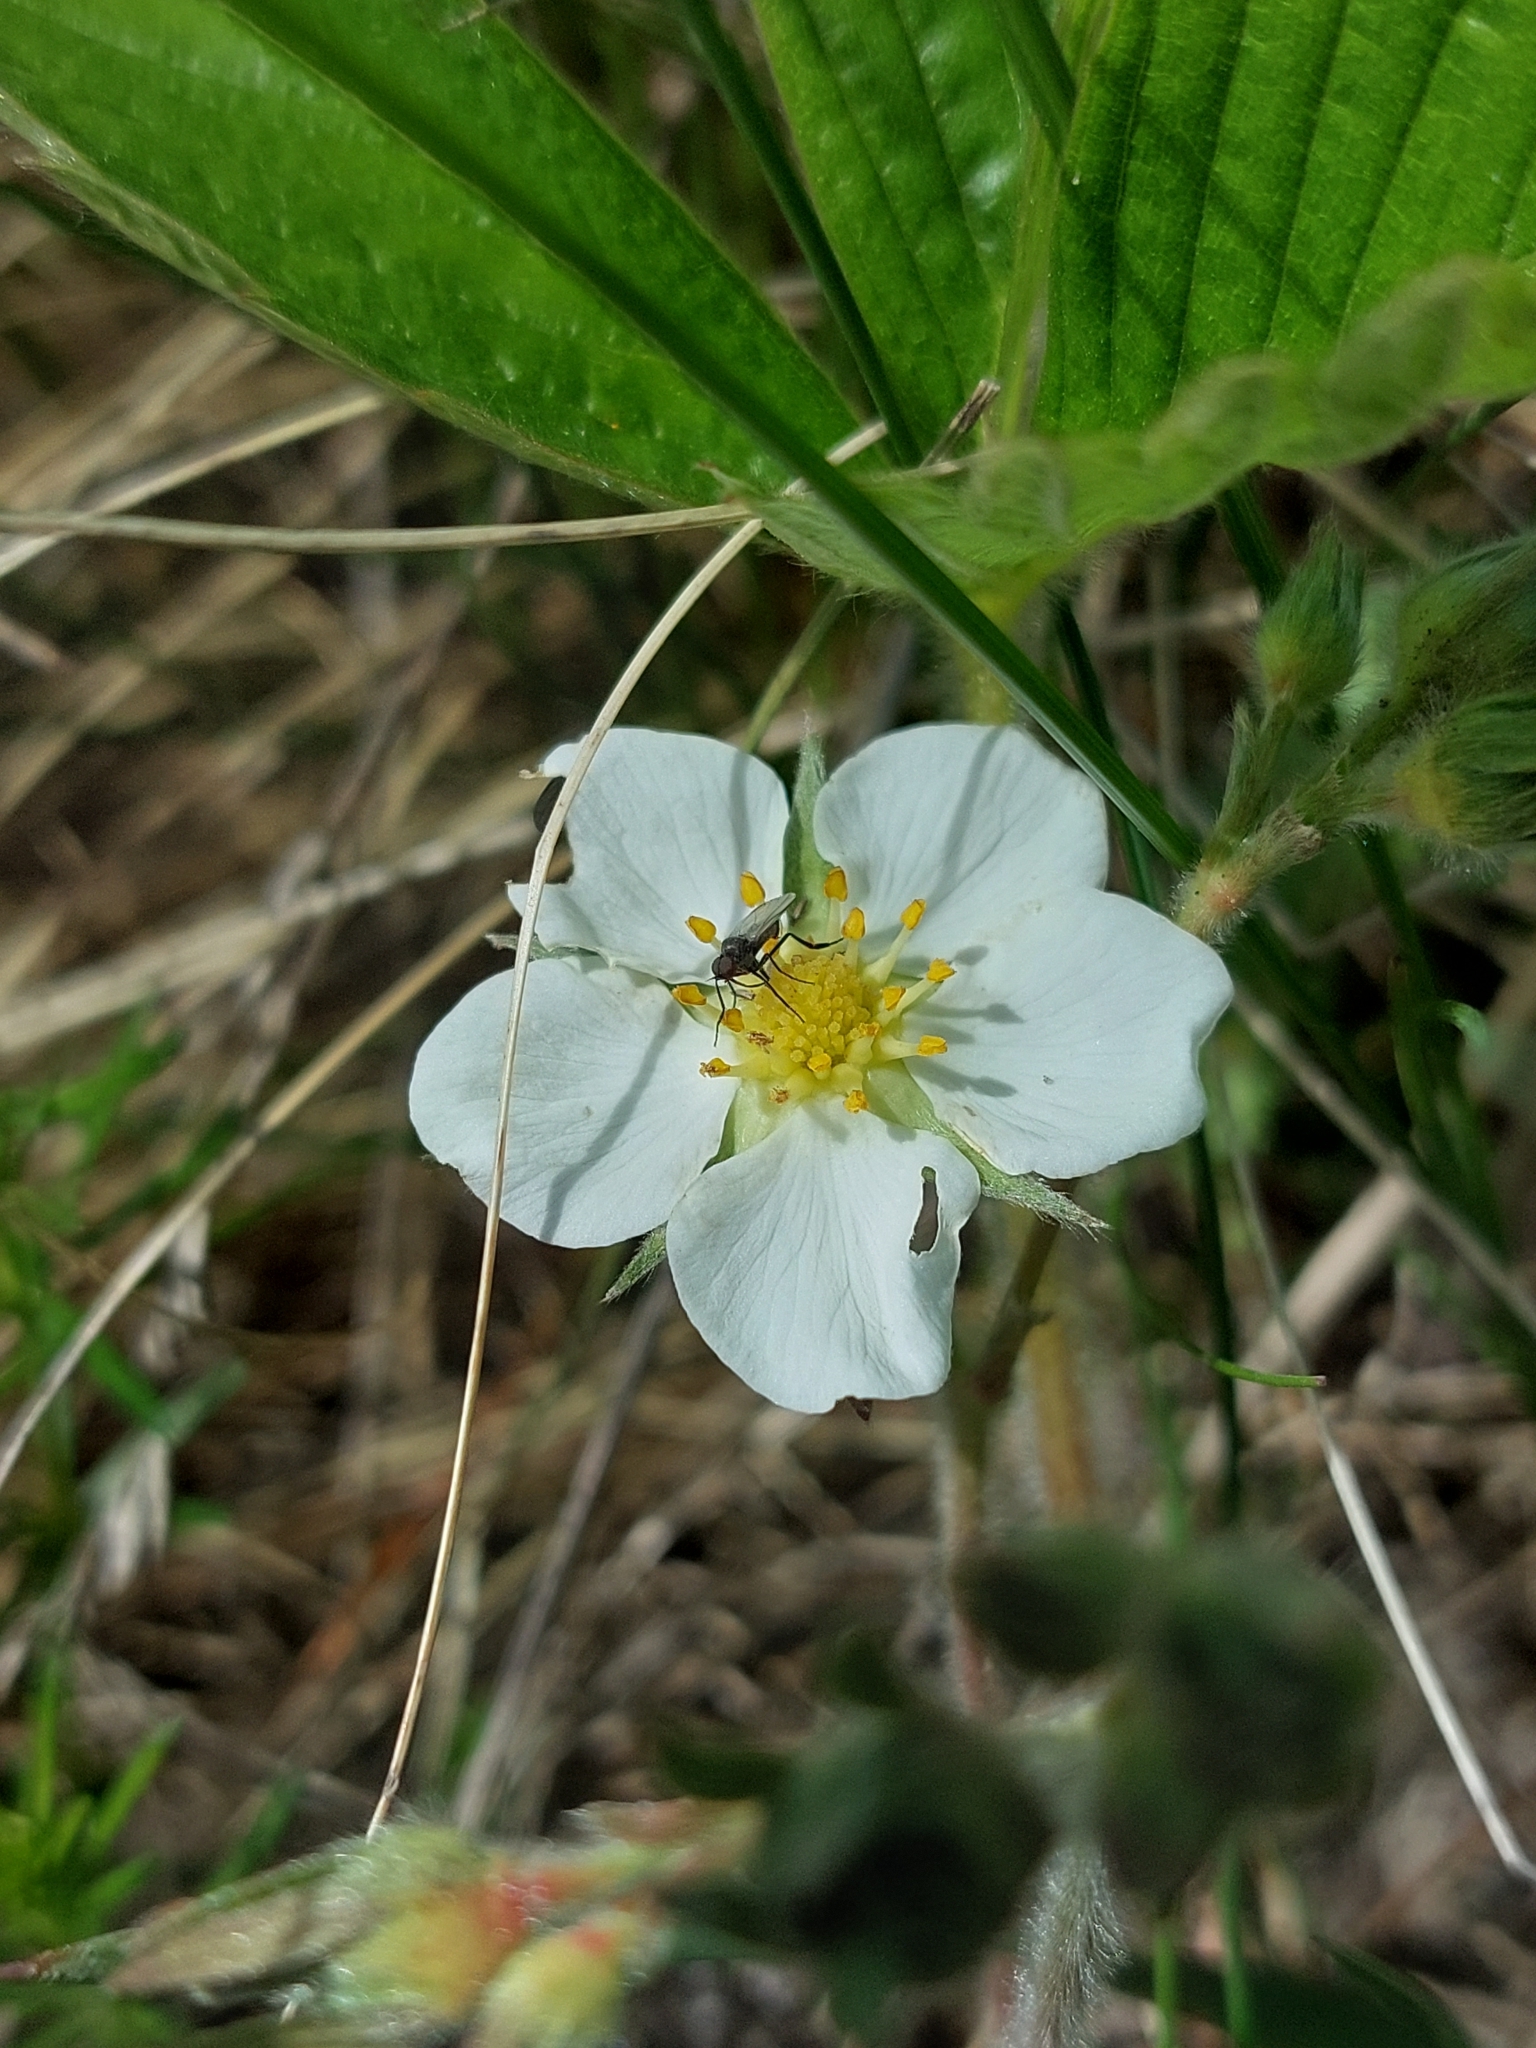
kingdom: Plantae
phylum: Tracheophyta
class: Magnoliopsida
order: Rosales
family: Rosaceae
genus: Fragaria
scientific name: Fragaria viridis
